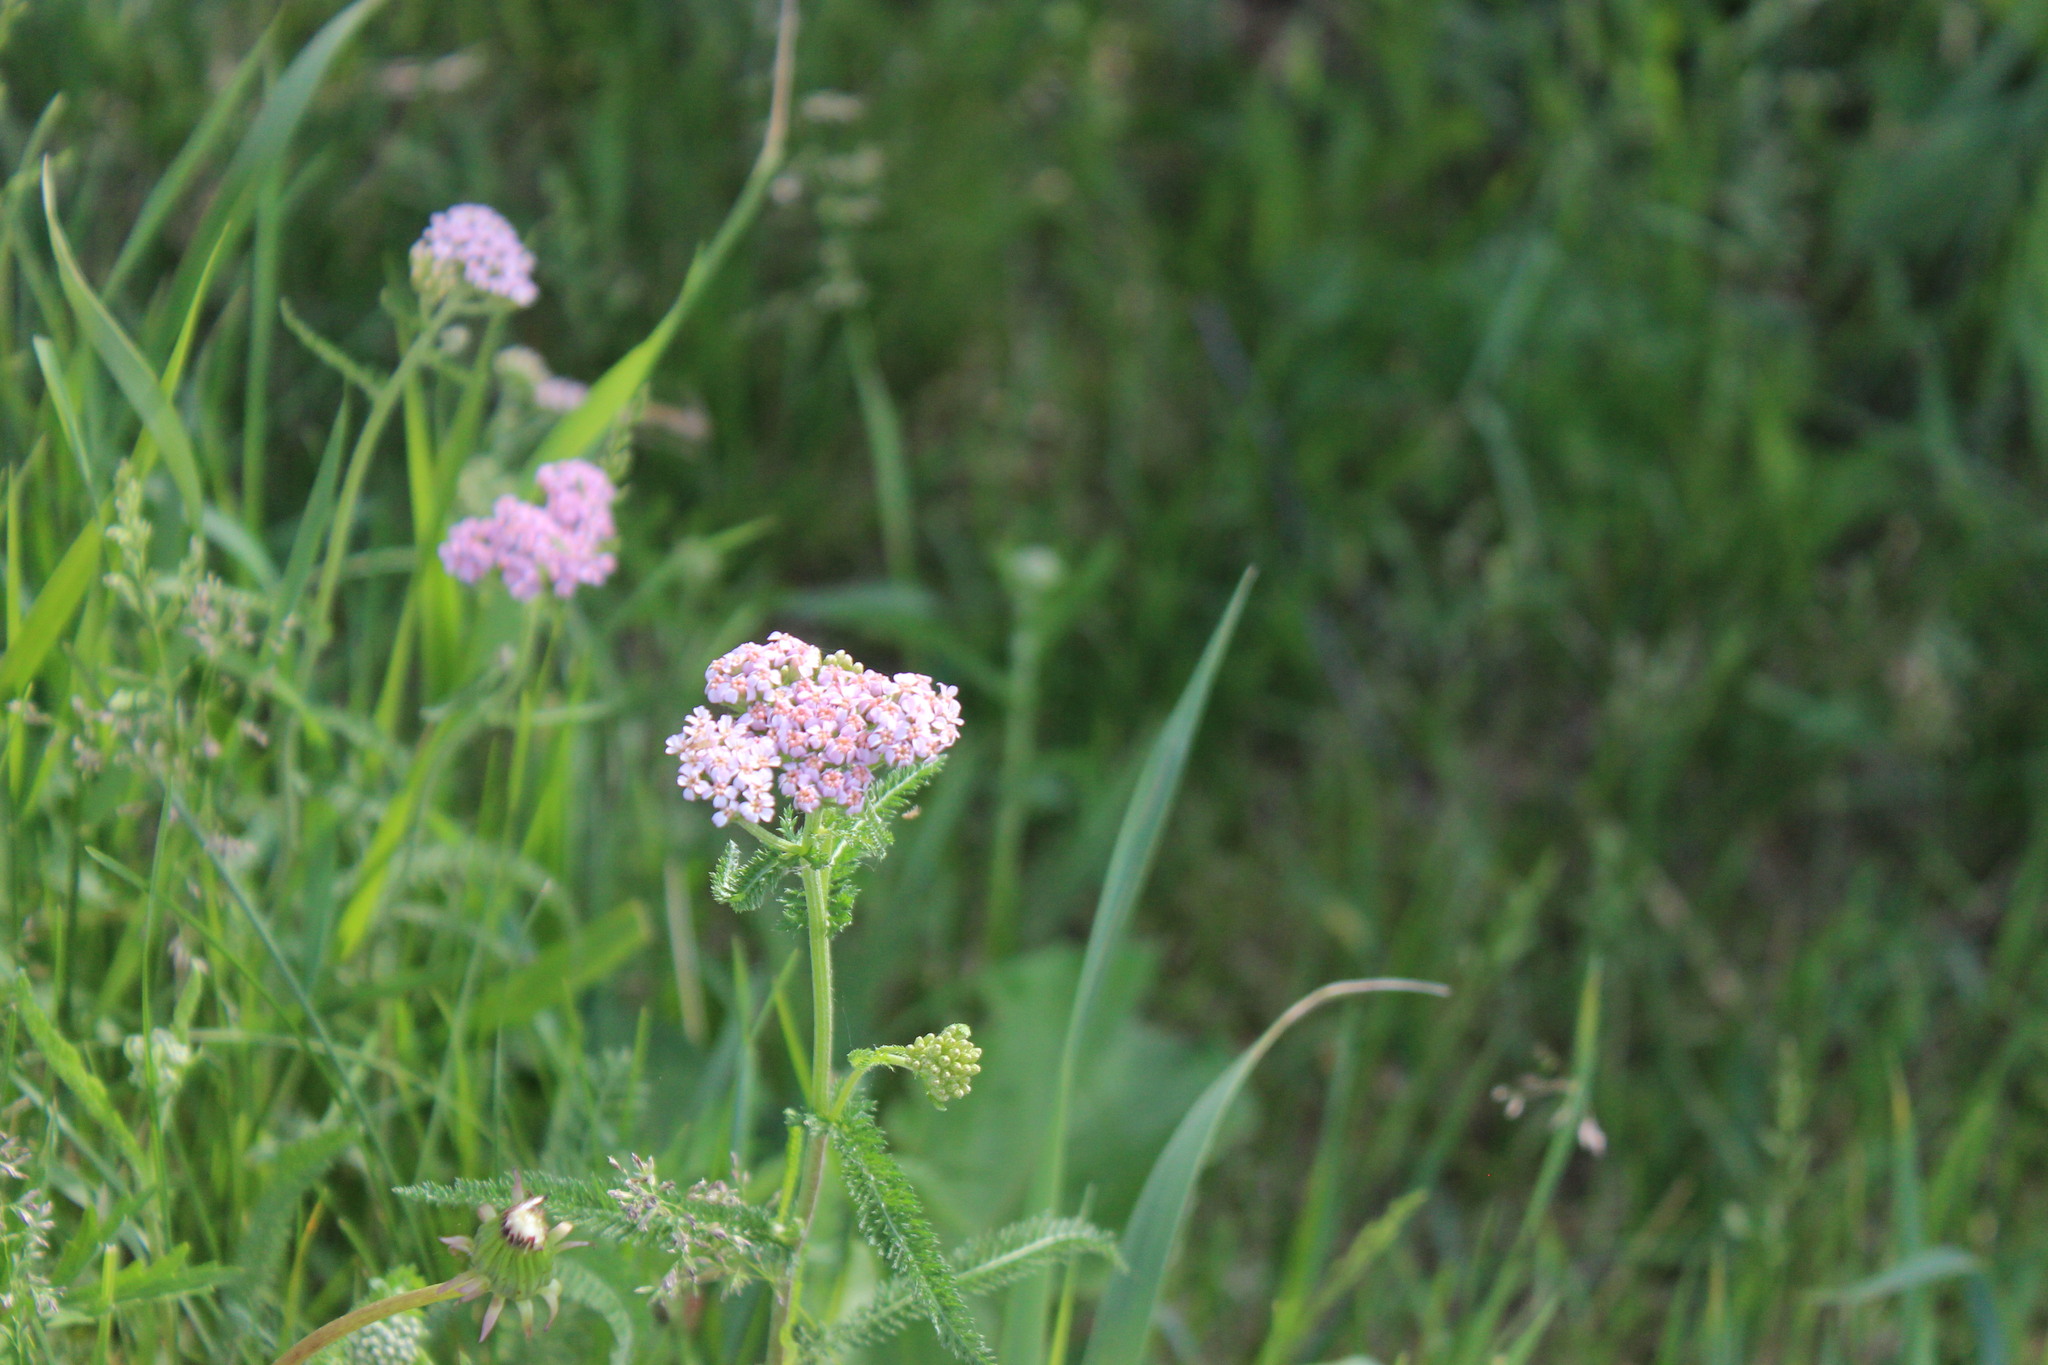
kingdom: Plantae
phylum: Tracheophyta
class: Magnoliopsida
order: Asterales
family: Asteraceae
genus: Achillea
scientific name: Achillea asiatica
